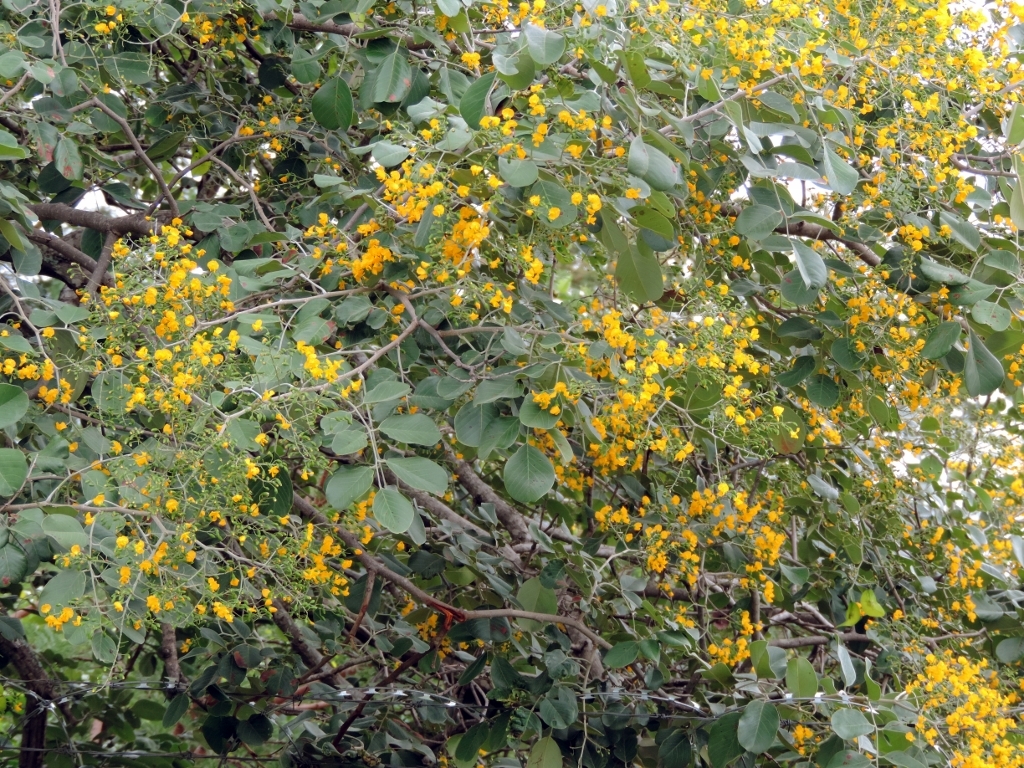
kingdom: Plantae
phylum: Tracheophyta
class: Magnoliopsida
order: Fabales
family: Fabaceae
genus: Pterocarpus
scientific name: Pterocarpus rotundifolius
